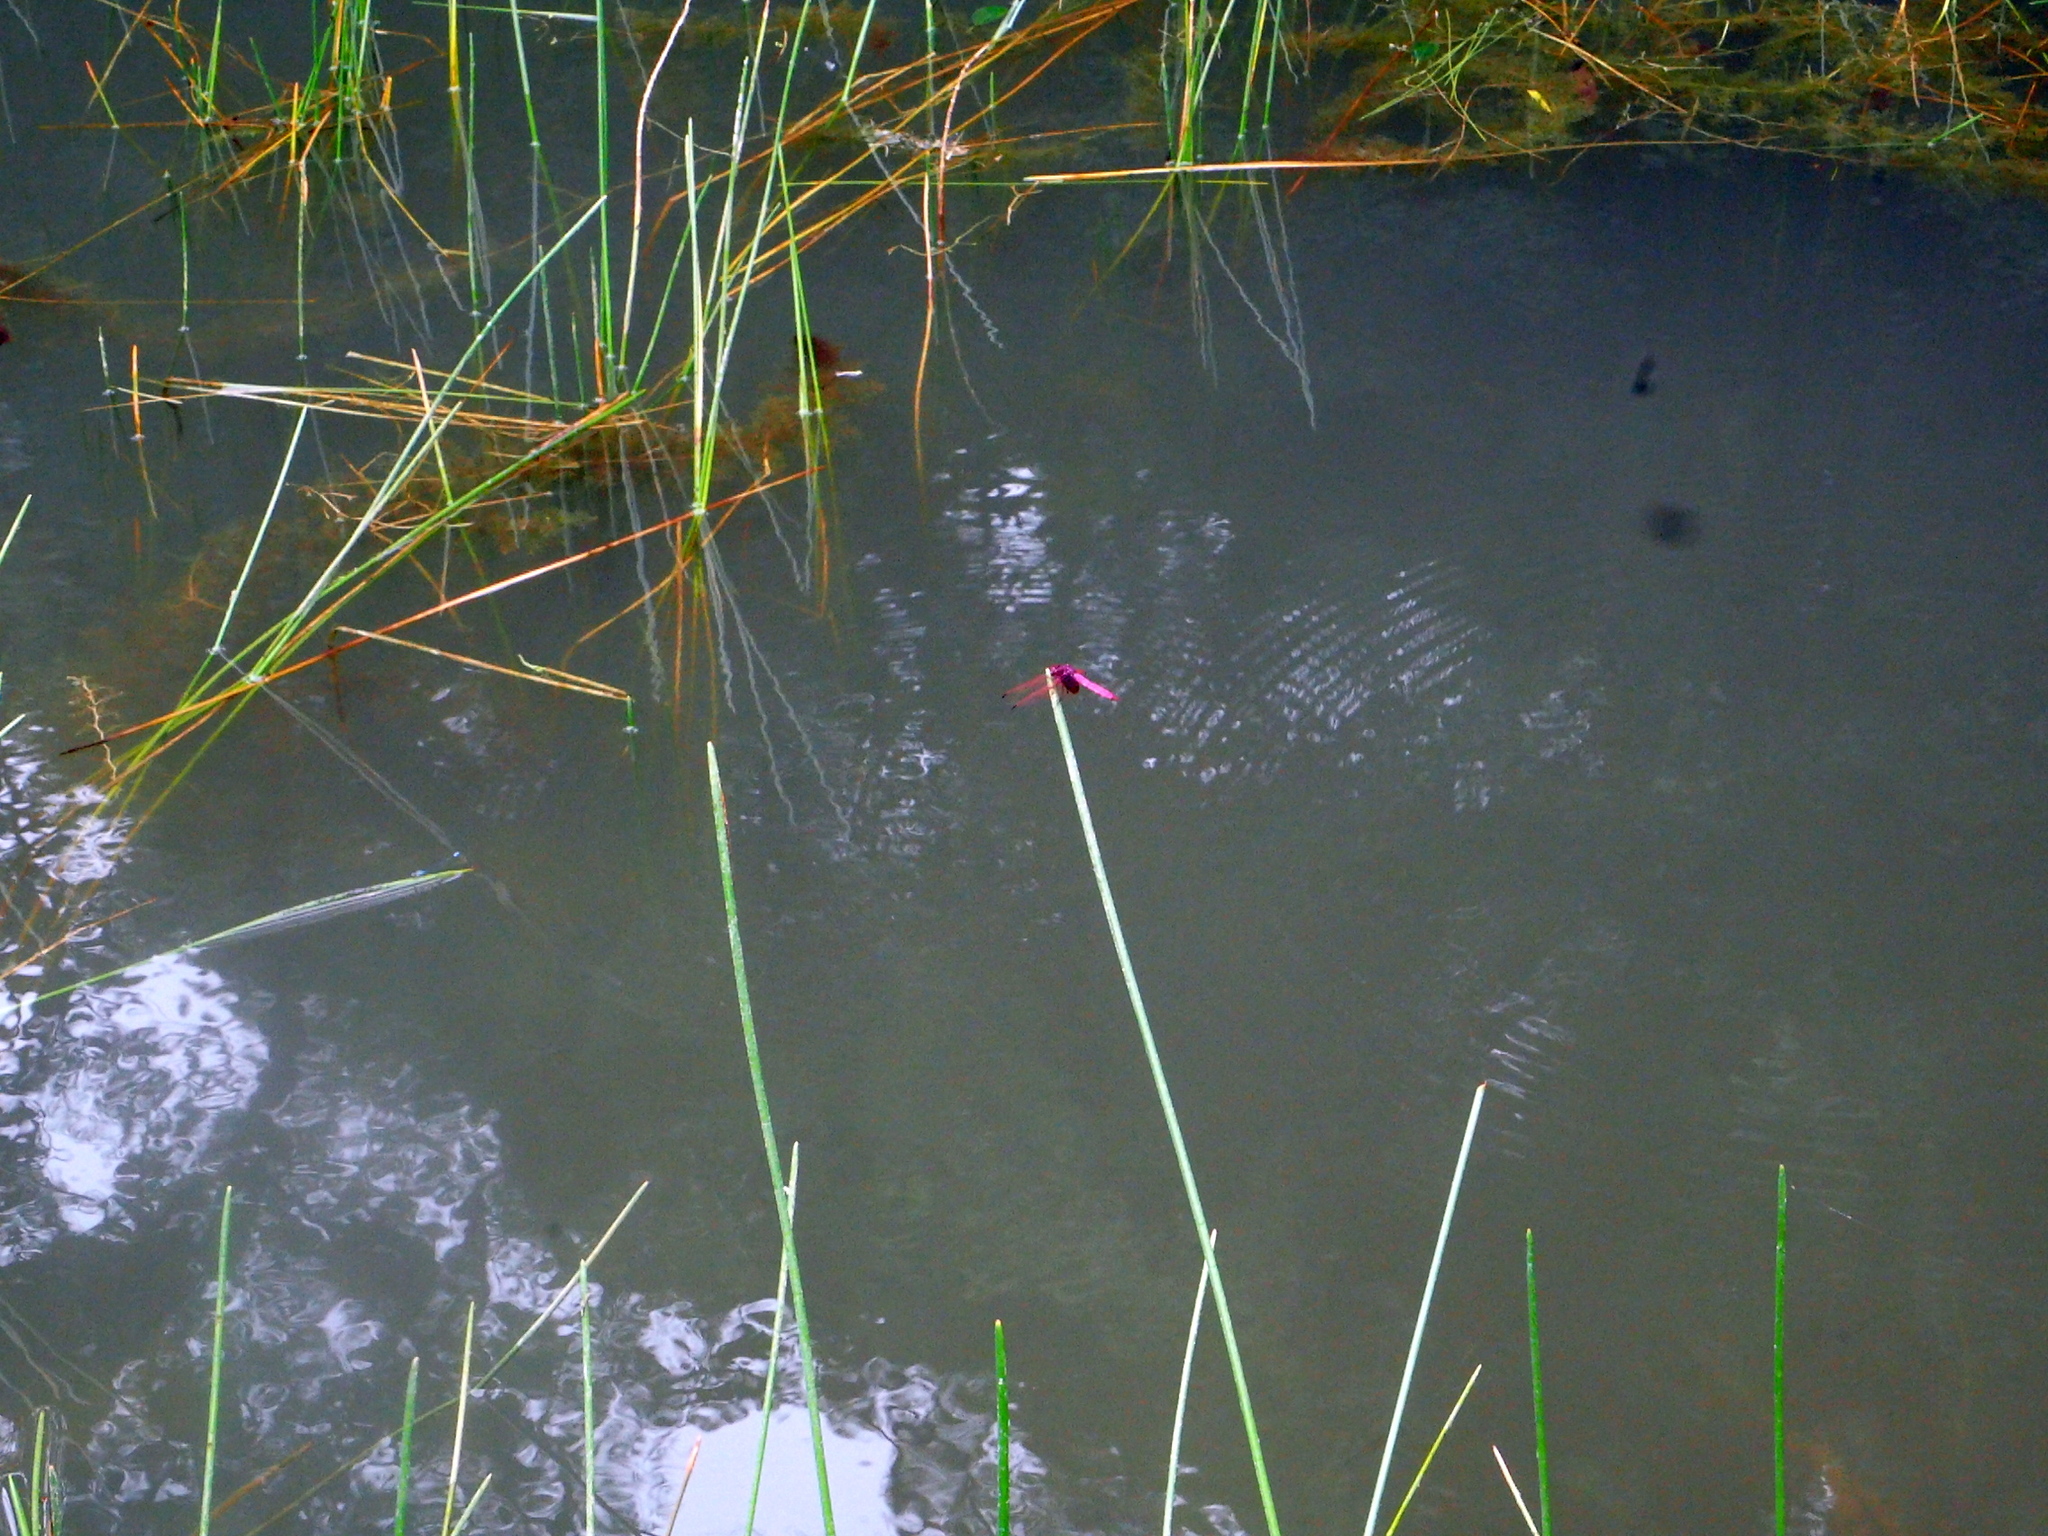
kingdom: Plantae
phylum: Tracheophyta
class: Liliopsida
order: Poales
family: Cyperaceae
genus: Eleocharis
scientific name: Eleocharis dulcis
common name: Chinese water chestnut
